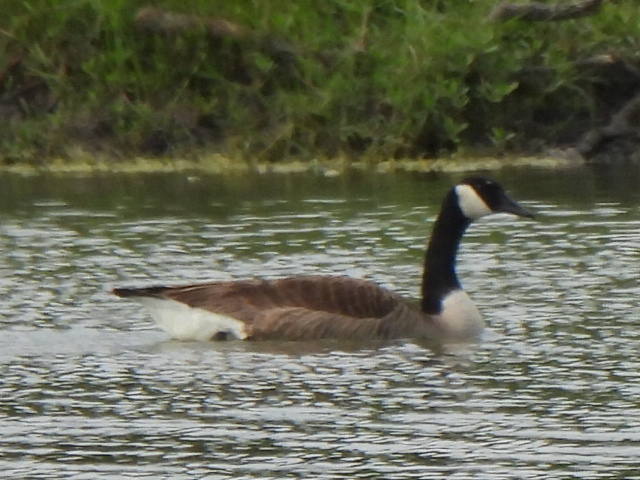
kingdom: Animalia
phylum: Chordata
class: Aves
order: Anseriformes
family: Anatidae
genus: Branta
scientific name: Branta canadensis
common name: Canada goose
